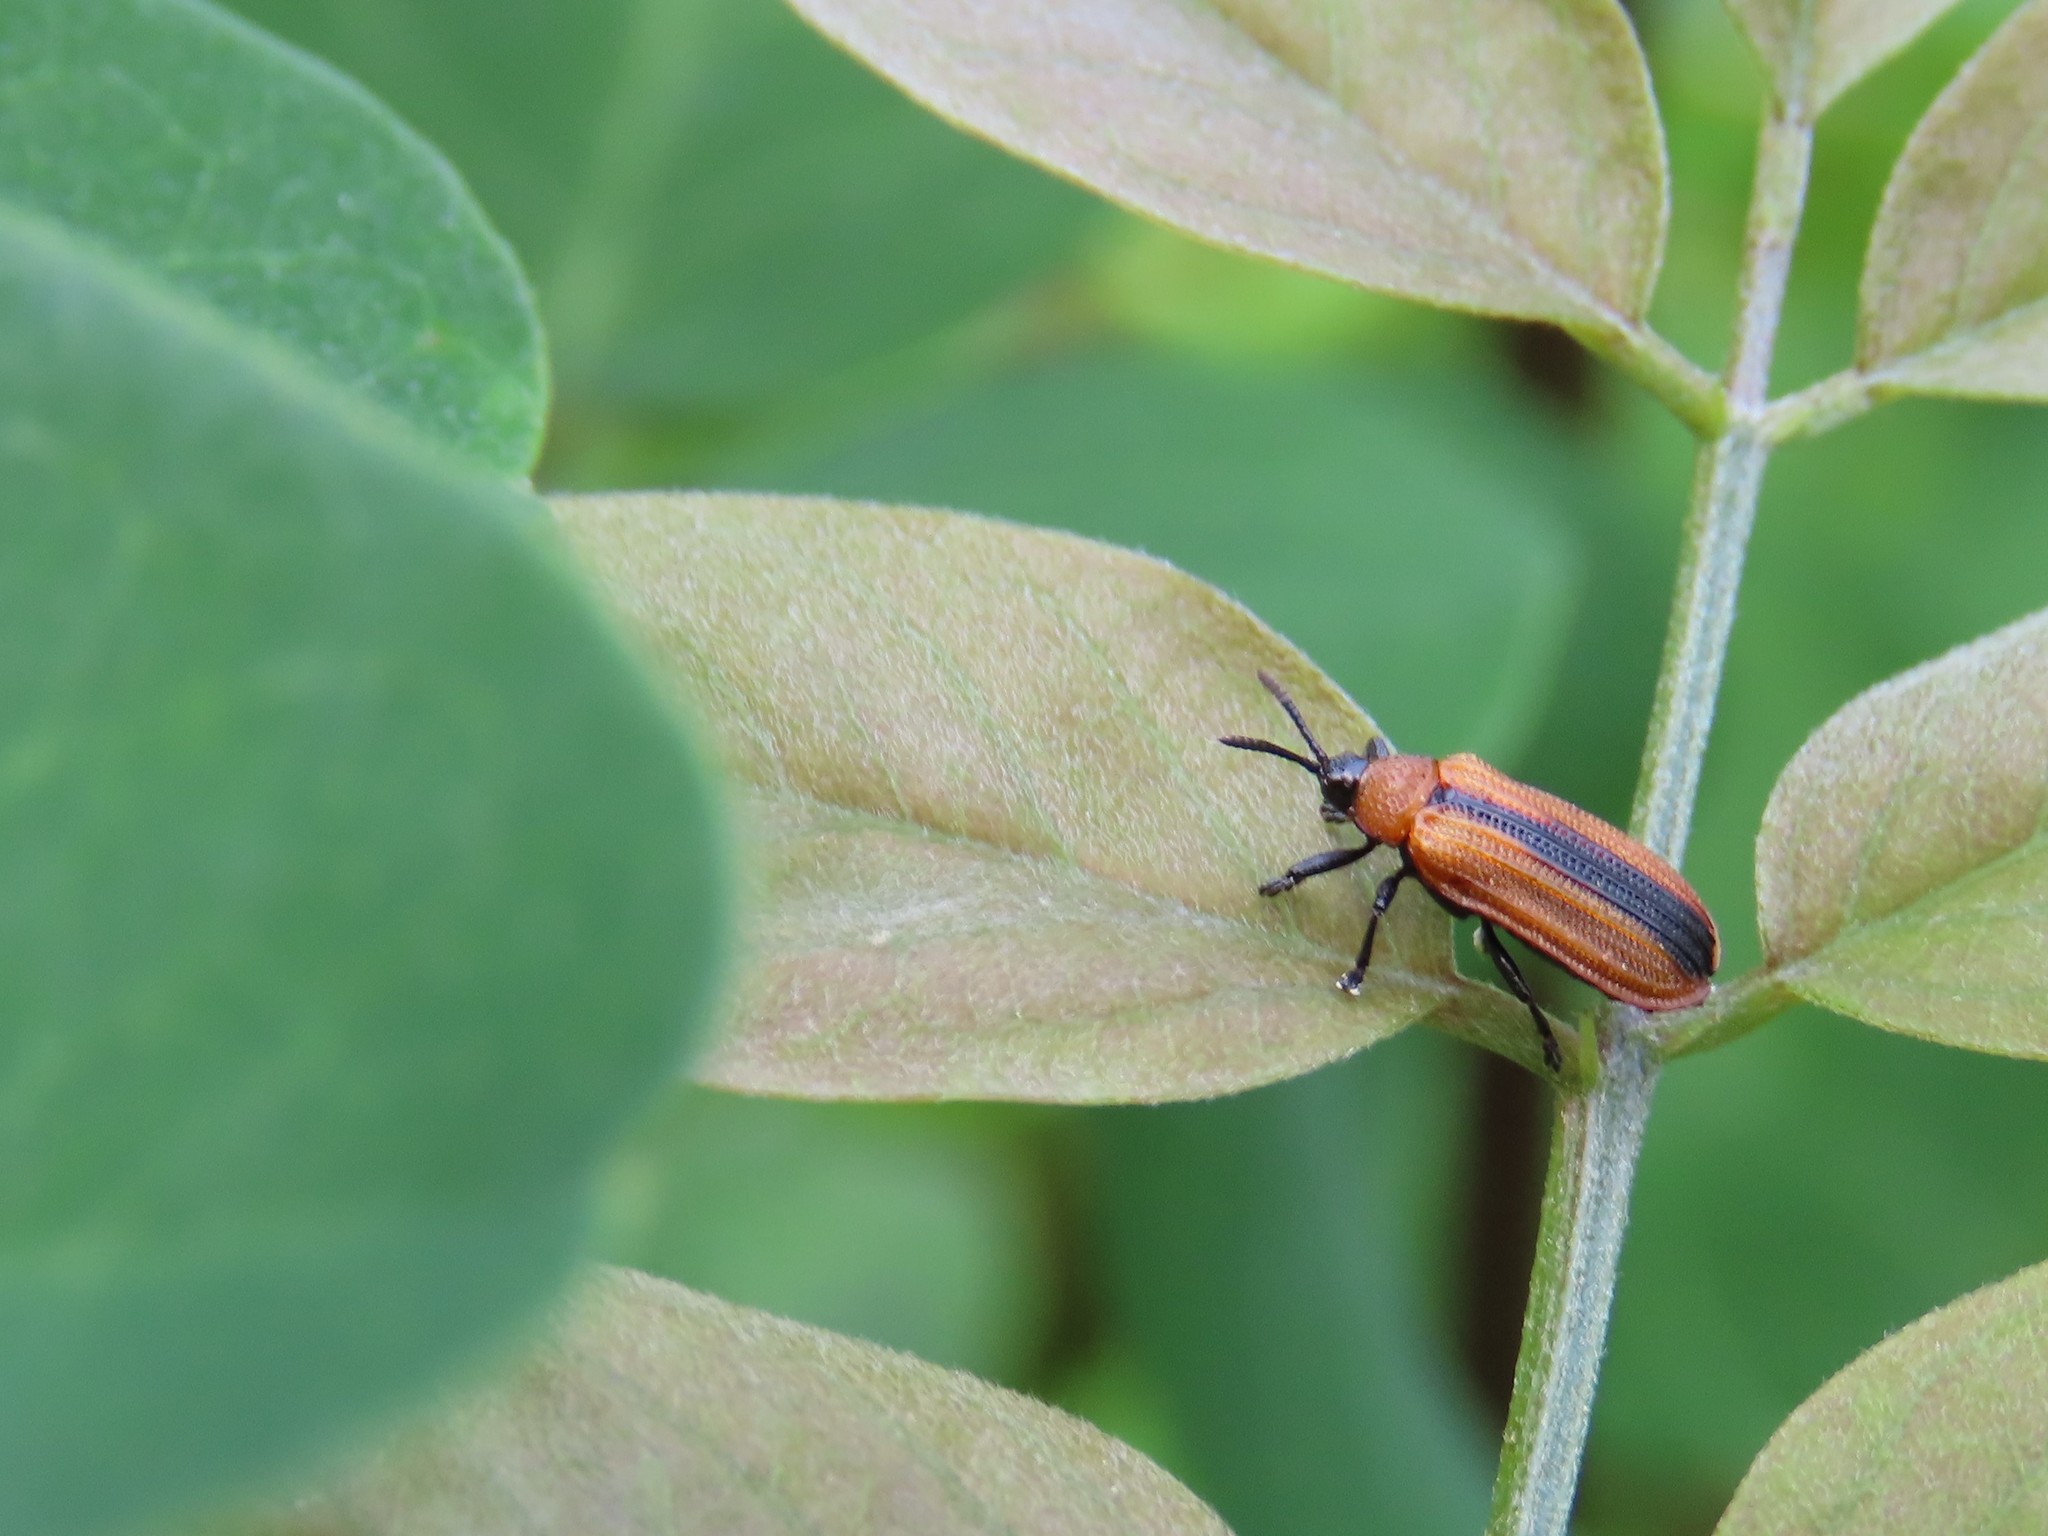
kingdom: Animalia
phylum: Arthropoda
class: Insecta
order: Coleoptera
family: Chrysomelidae
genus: Odontota
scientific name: Odontota dorsalis
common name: Locust leaf-miner beetle
